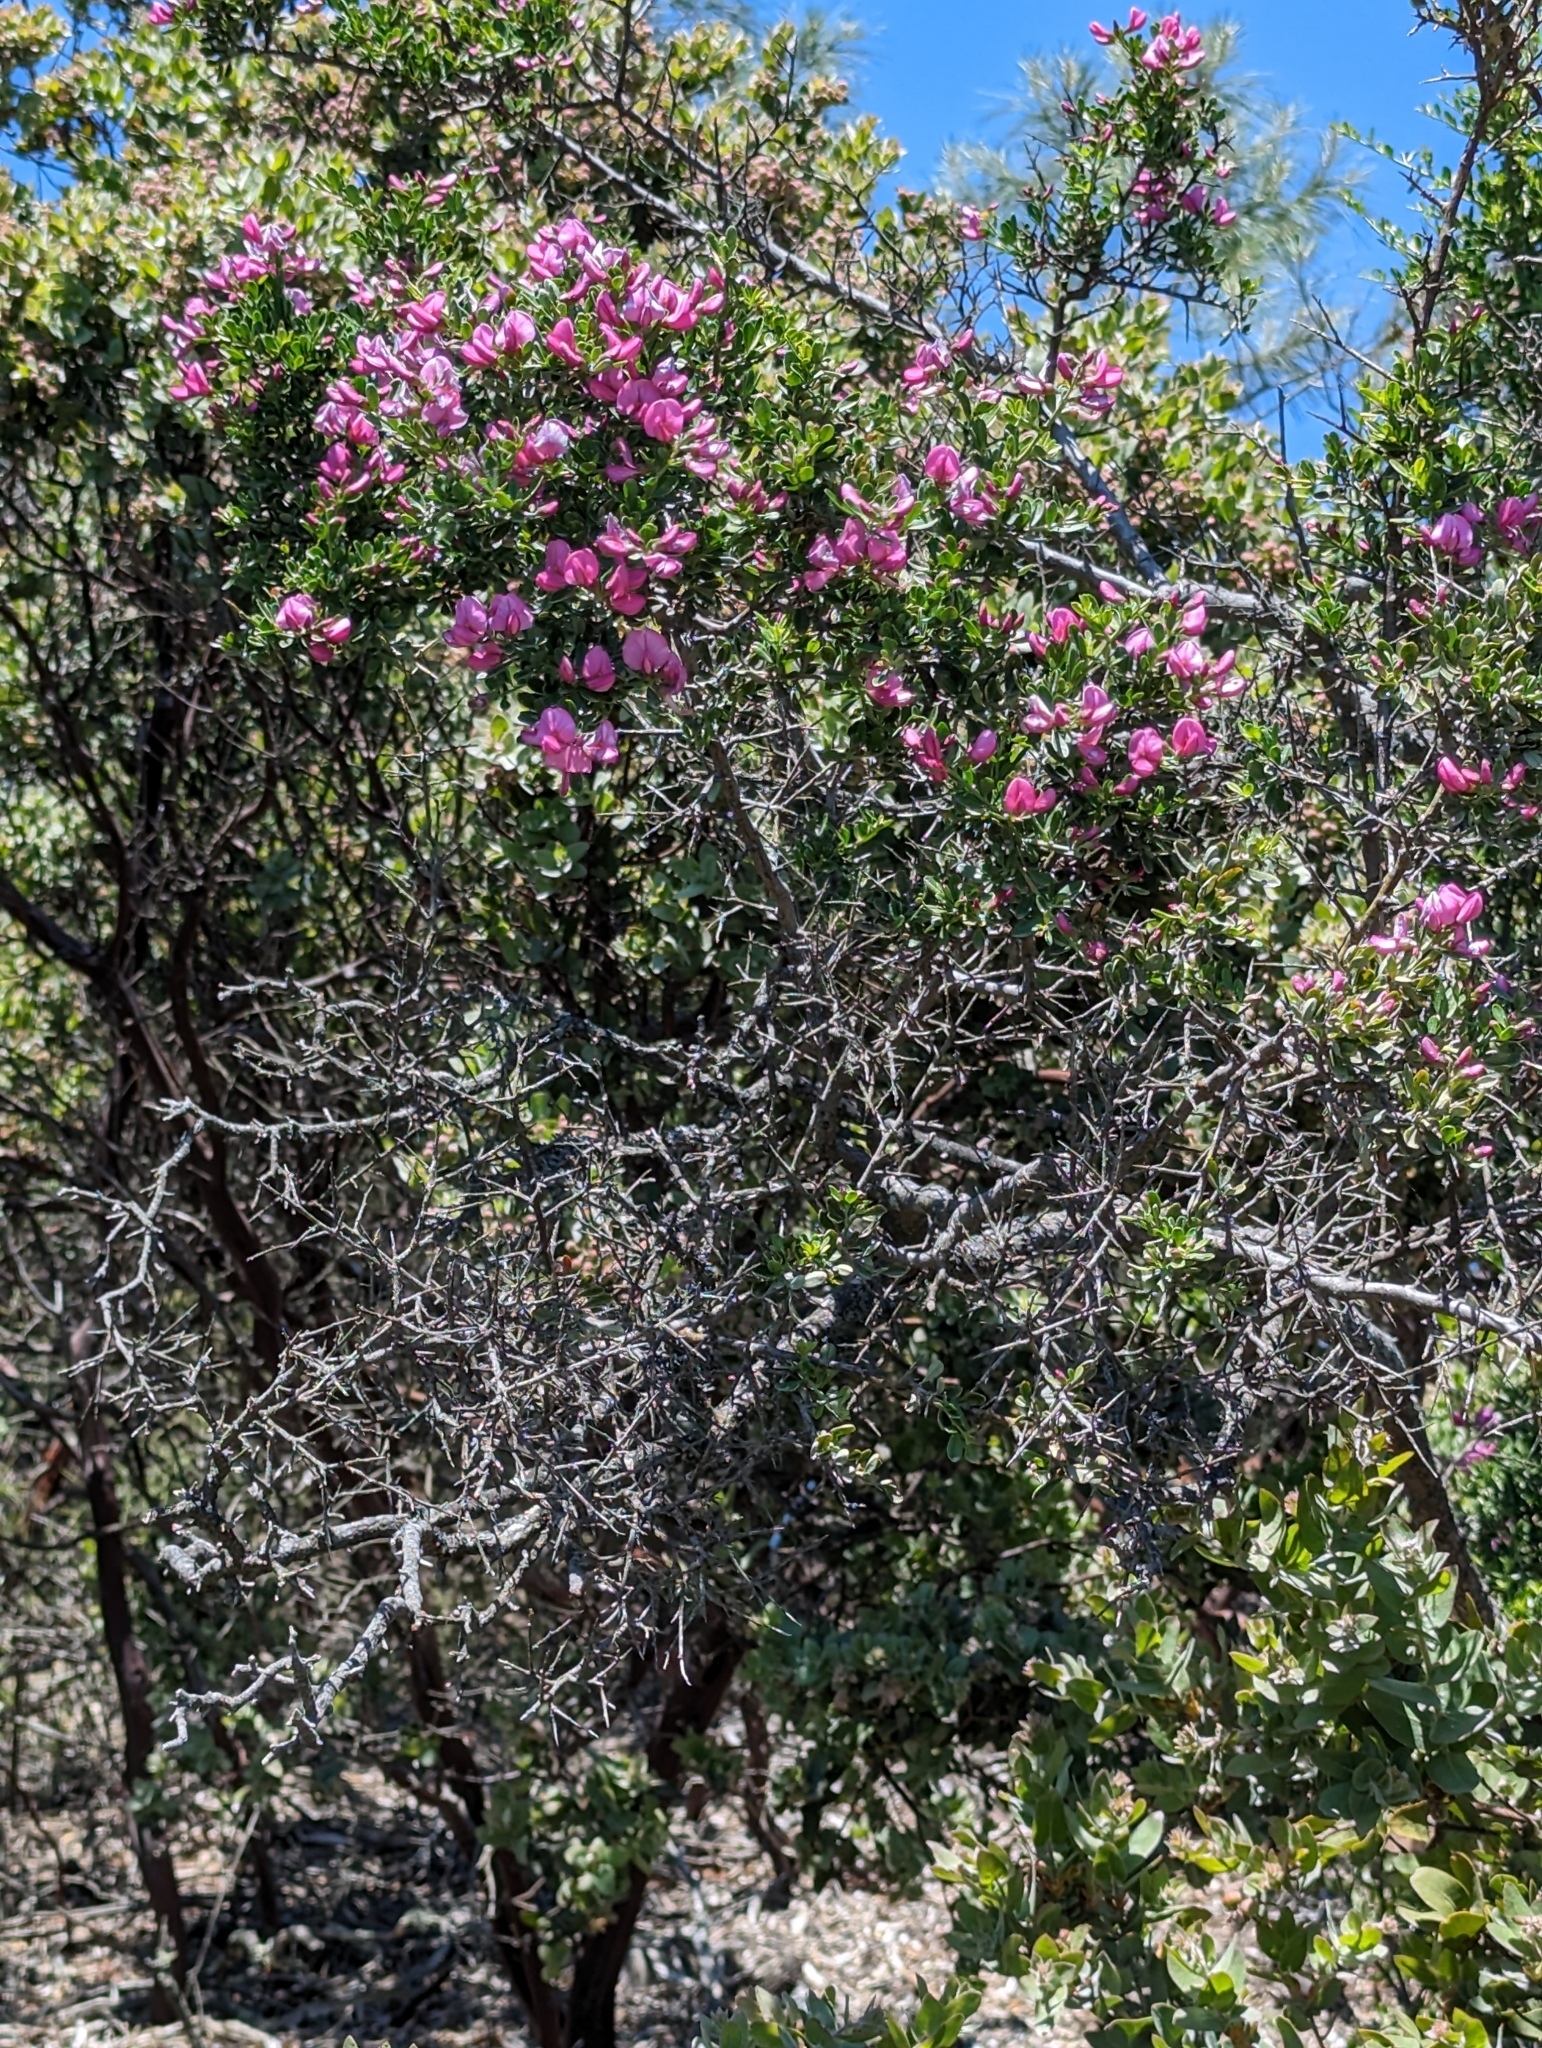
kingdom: Plantae
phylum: Tracheophyta
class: Magnoliopsida
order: Fabales
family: Fabaceae
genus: Pickeringia
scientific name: Pickeringia montana
